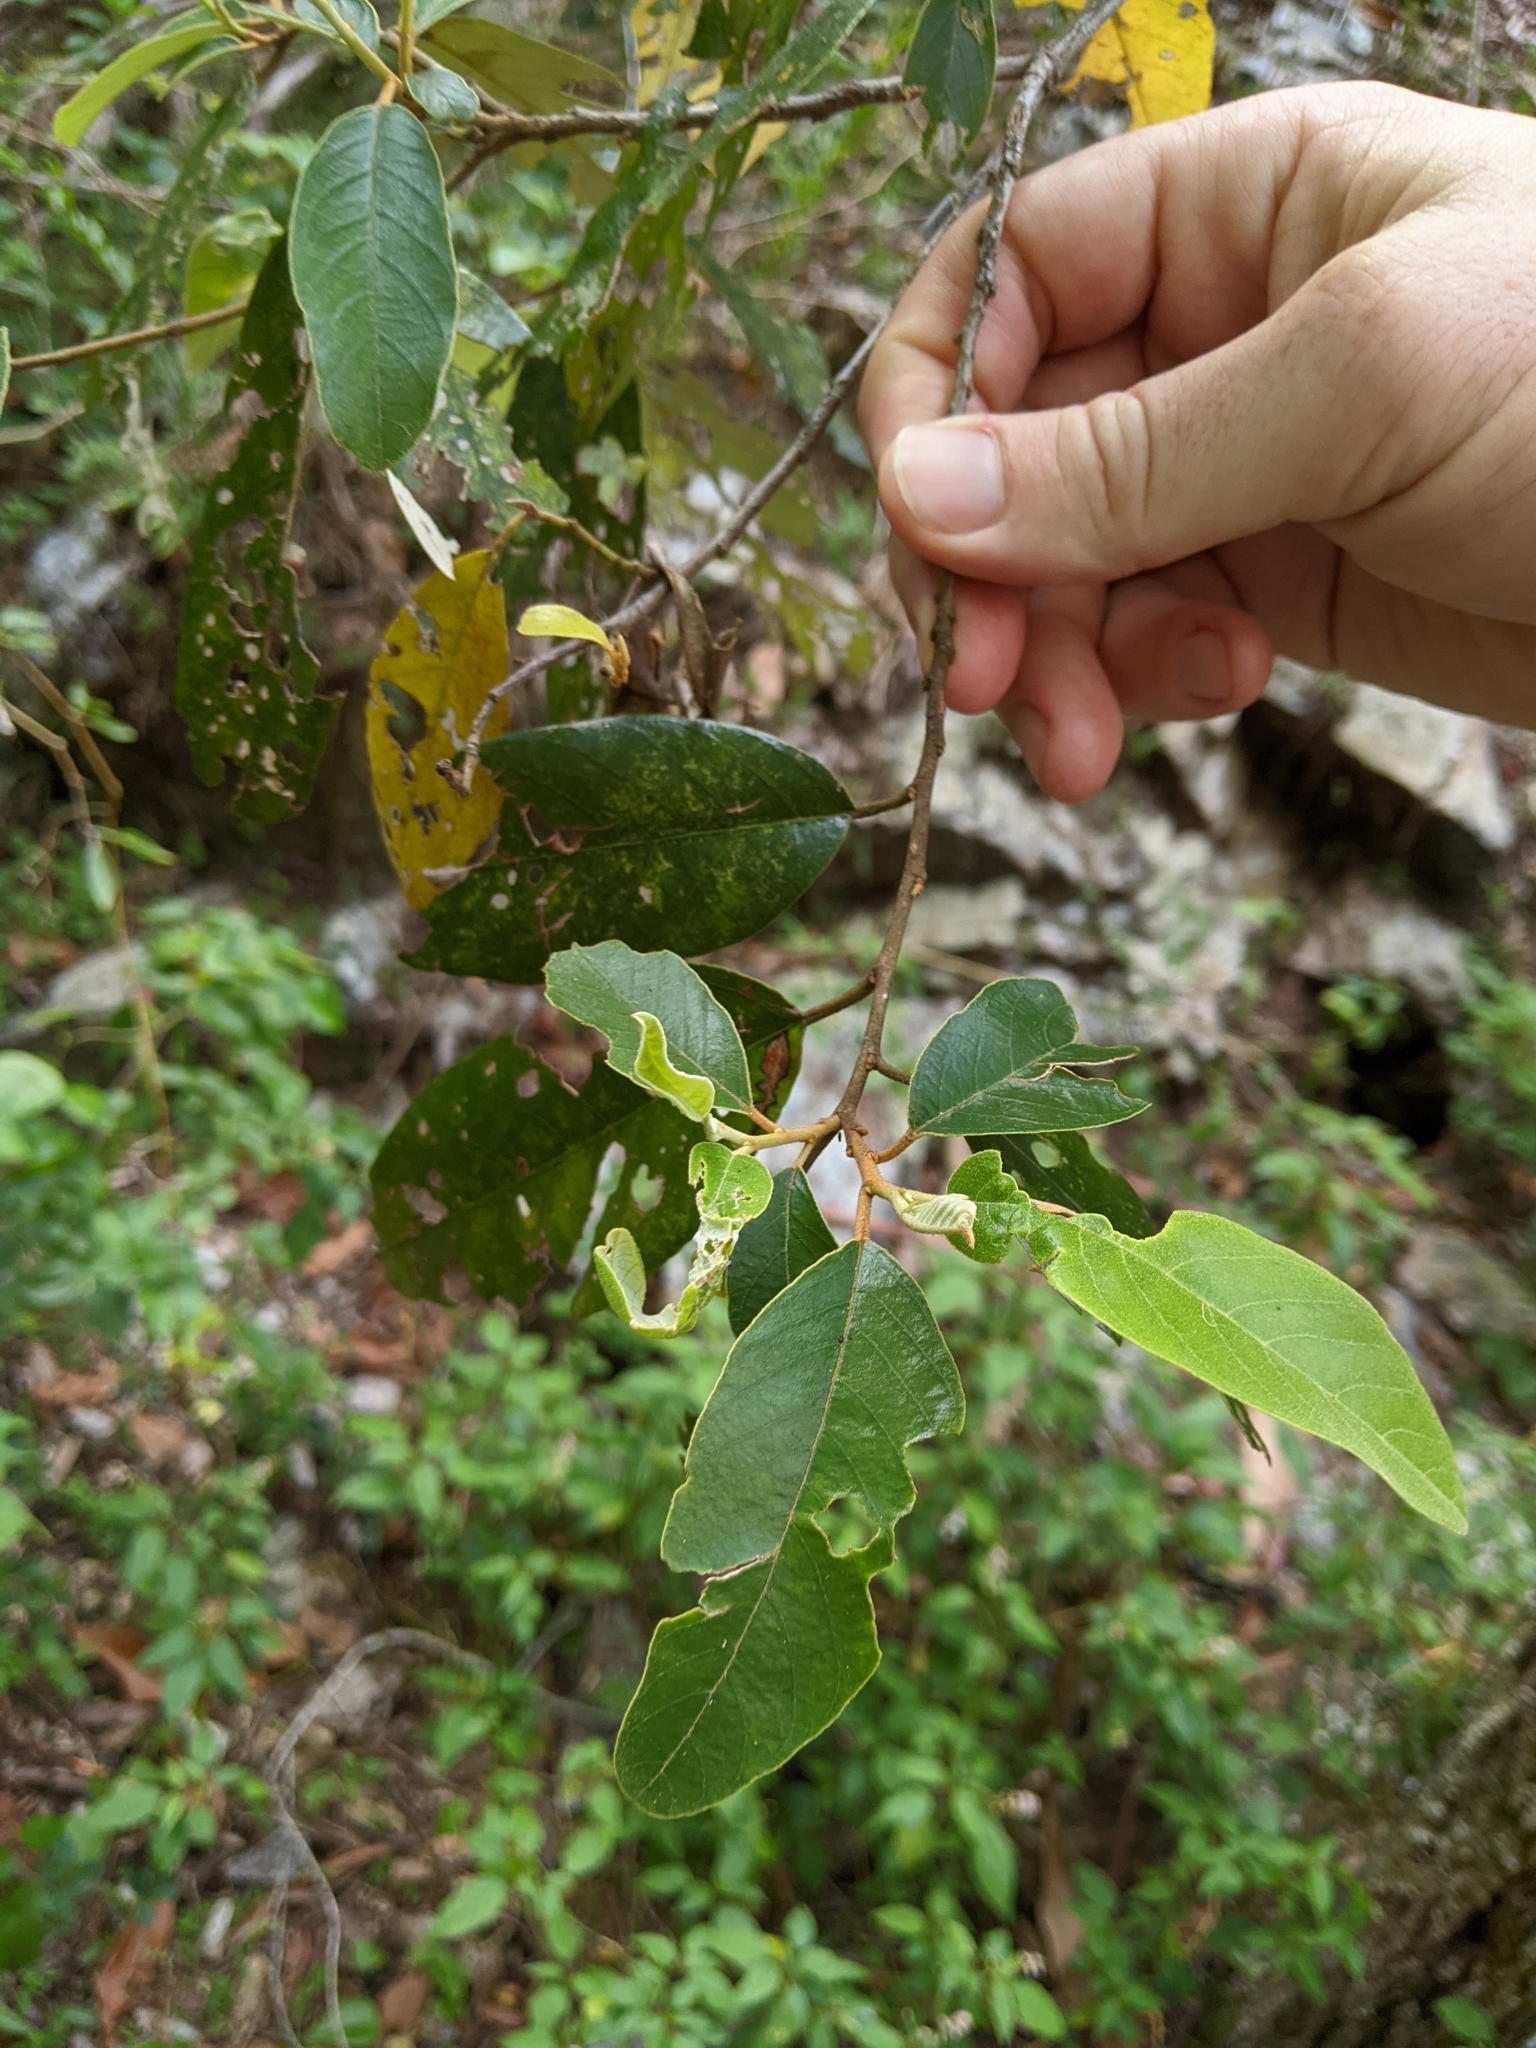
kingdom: Plantae
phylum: Tracheophyta
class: Magnoliopsida
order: Rosales
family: Rhamnaceae
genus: Alphitonia
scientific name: Alphitonia excelsa
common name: Red ash
